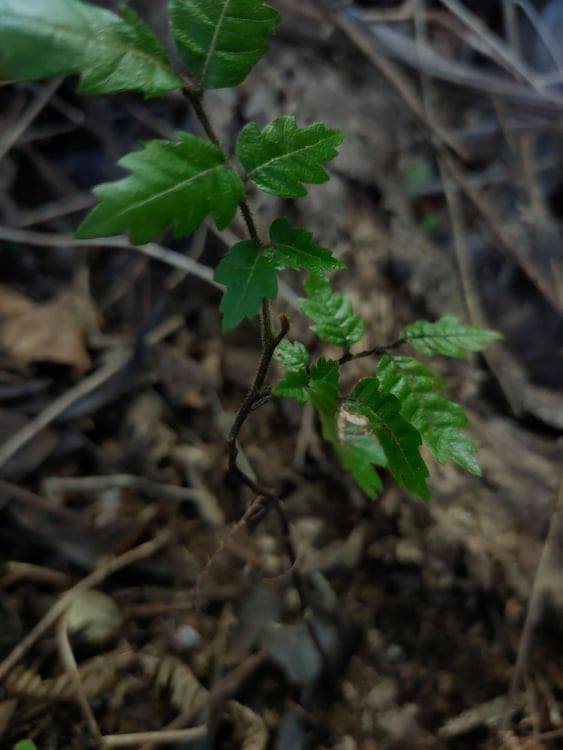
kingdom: Plantae
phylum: Tracheophyta
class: Magnoliopsida
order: Sapindales
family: Sapindaceae
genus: Alectryon
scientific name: Alectryon excelsus
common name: Three kings titoki
